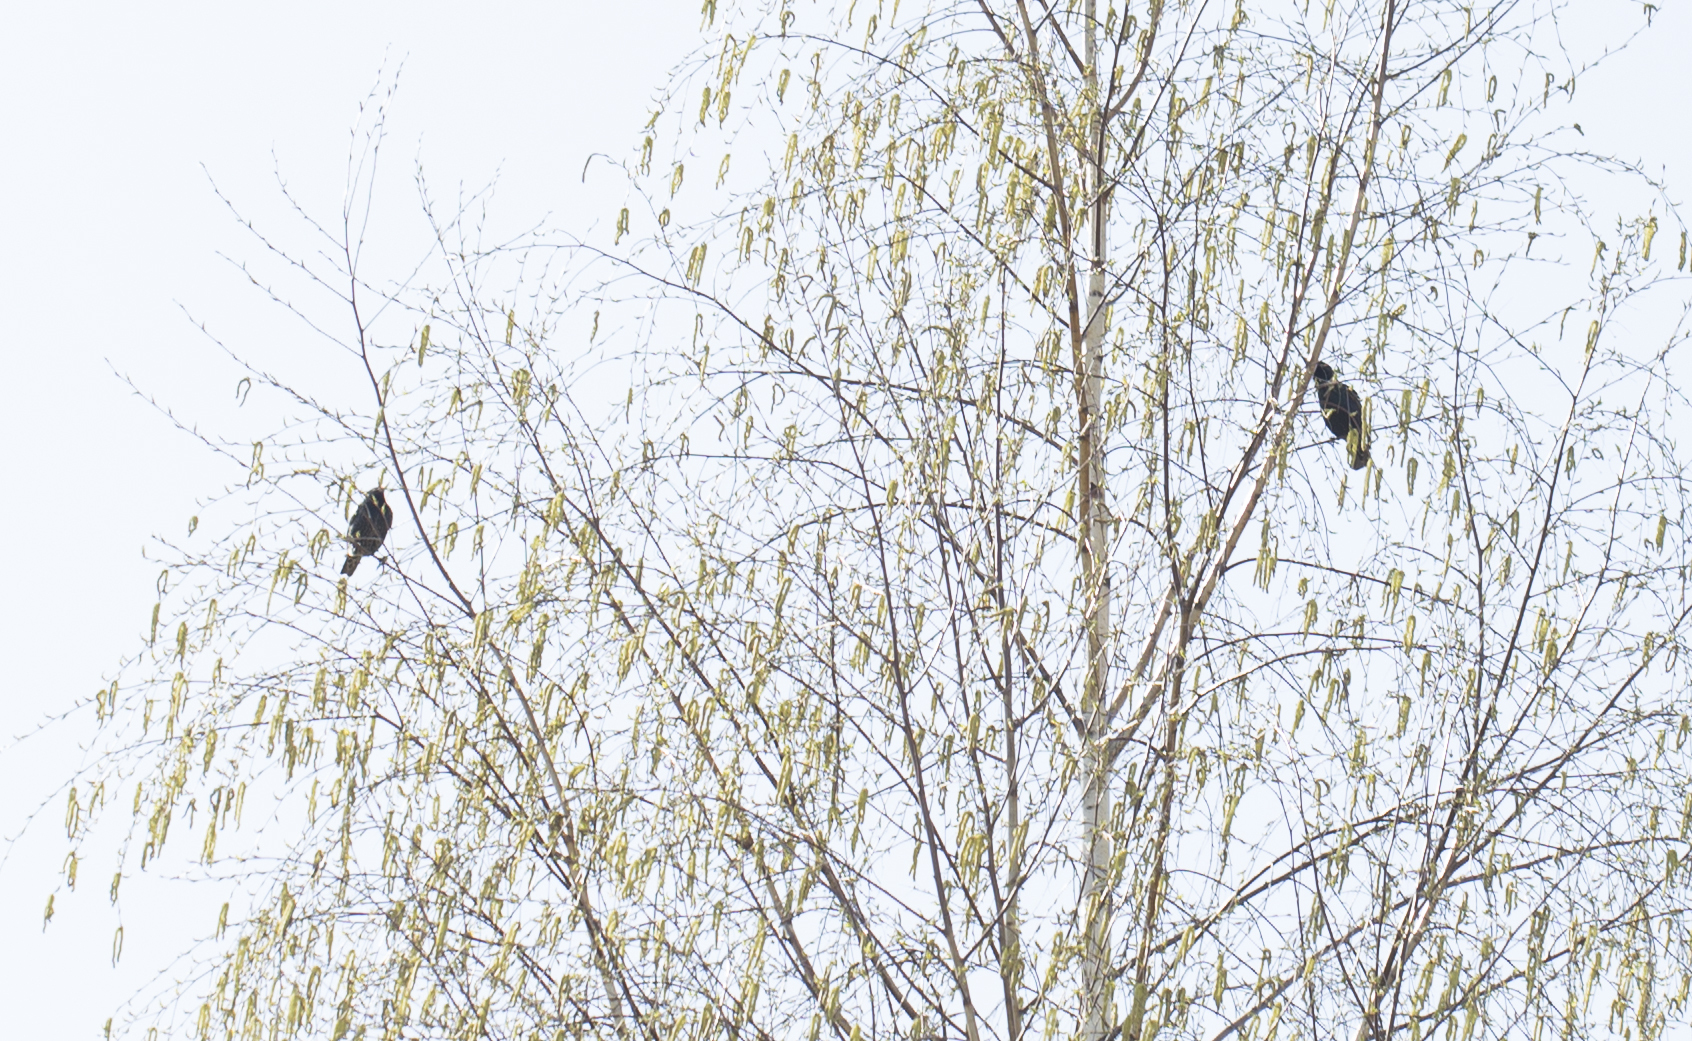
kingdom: Animalia
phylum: Chordata
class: Aves
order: Passeriformes
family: Sturnidae
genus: Sturnus
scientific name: Sturnus vulgaris
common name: Common starling
